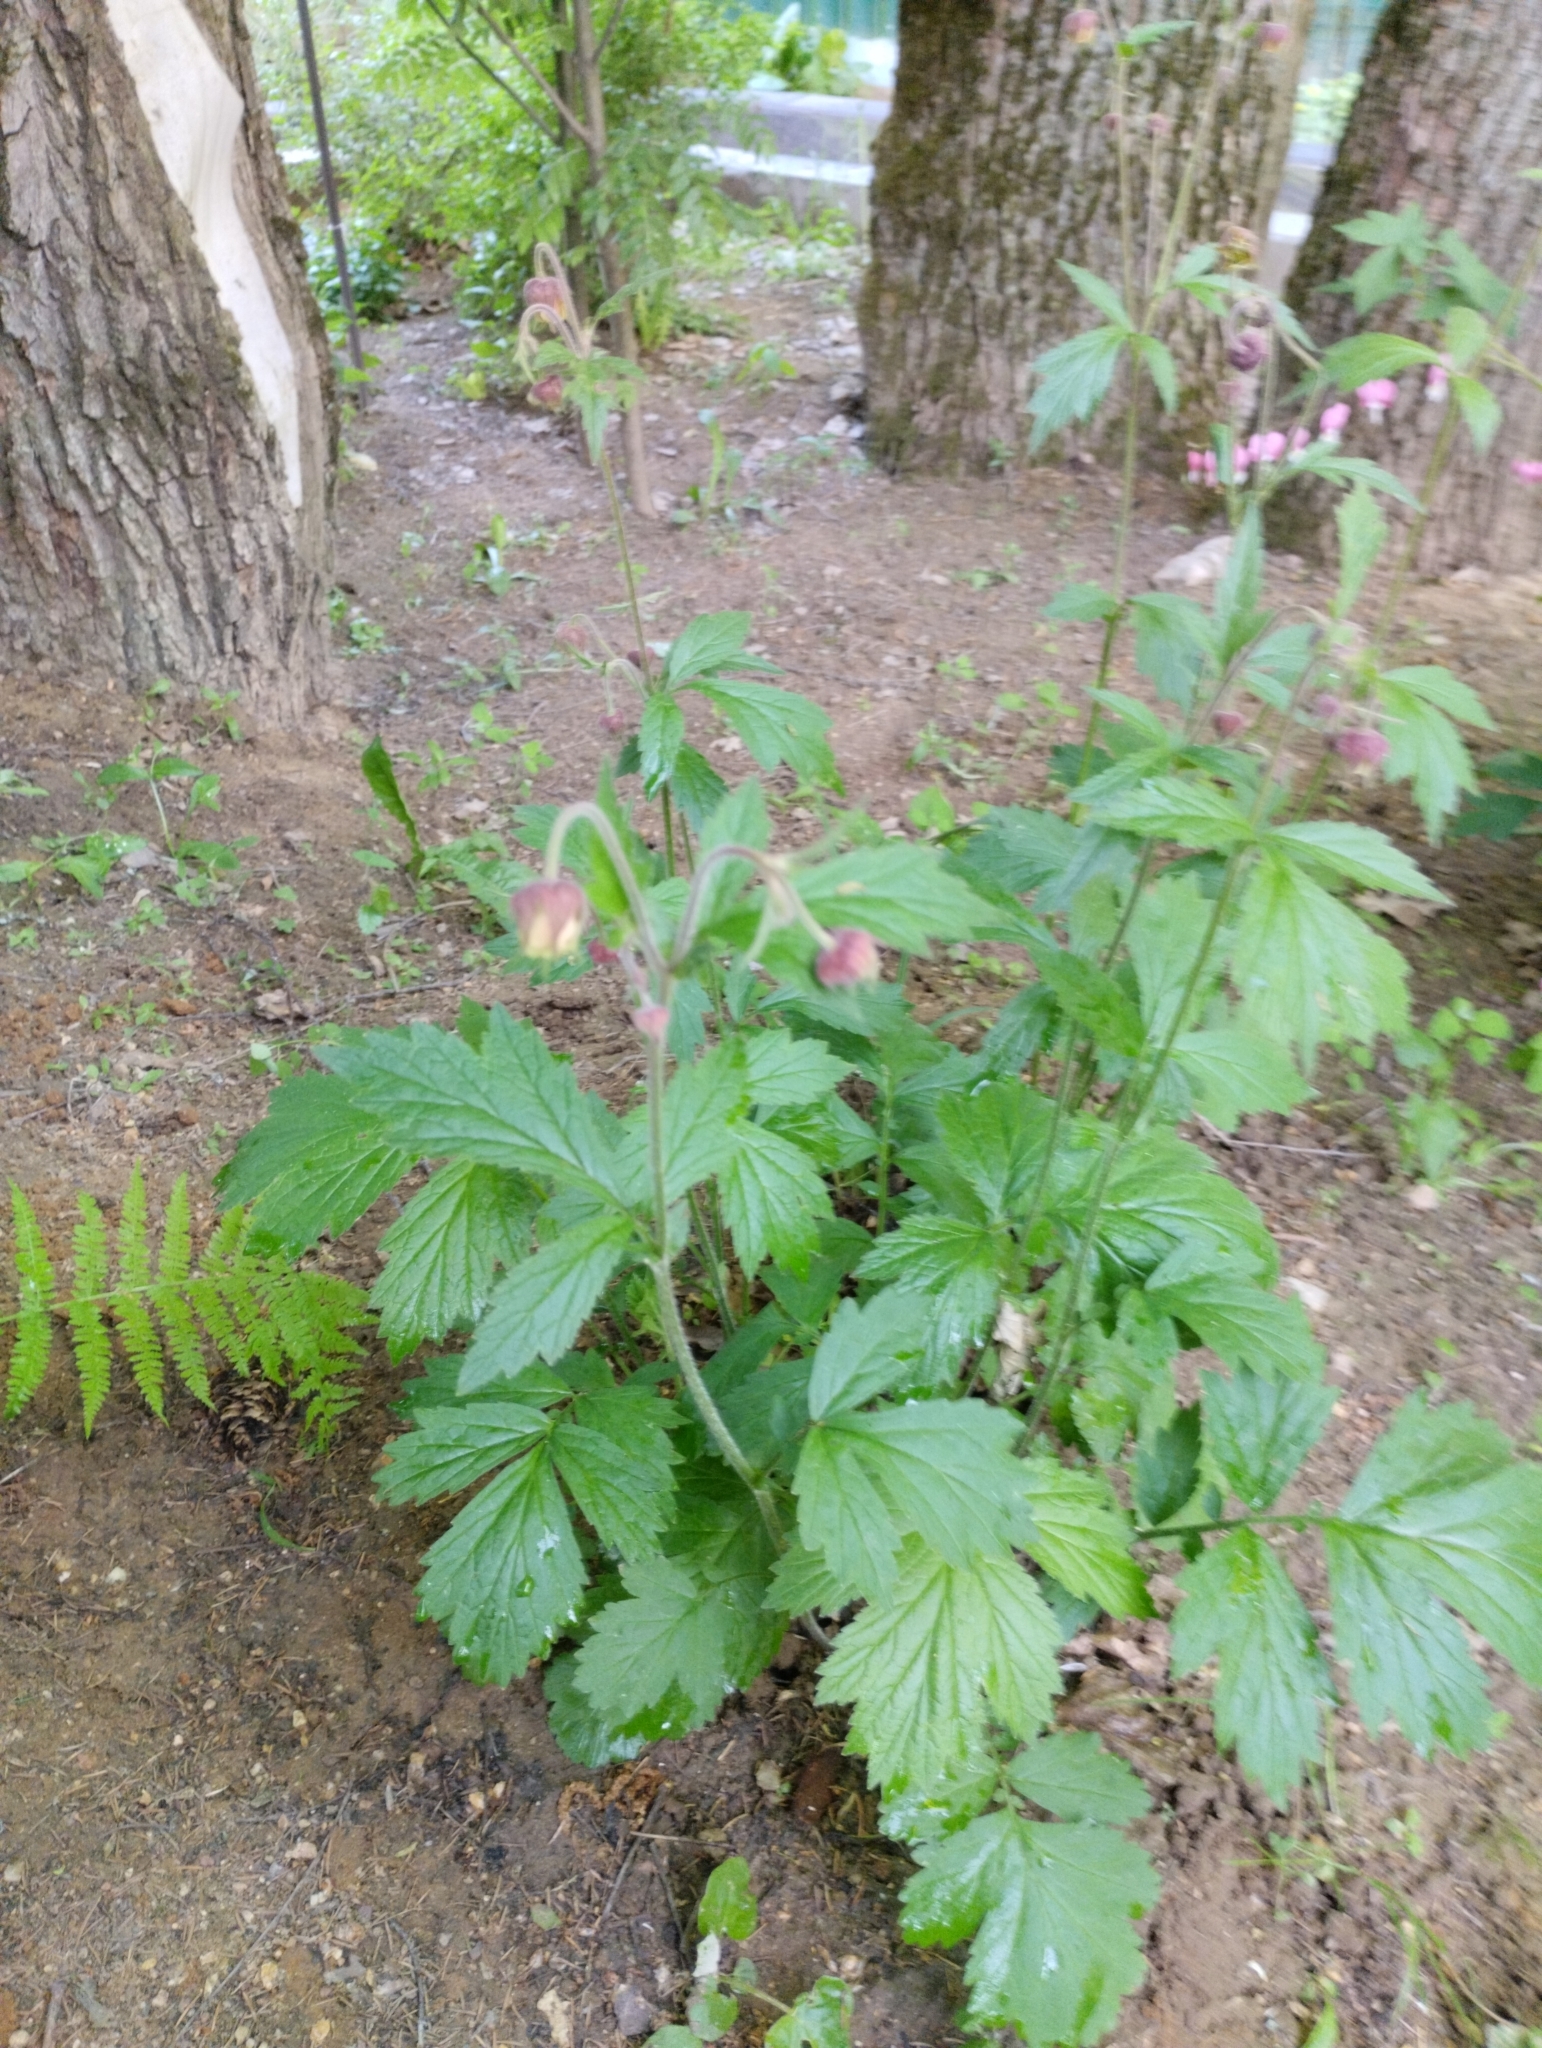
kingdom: Plantae
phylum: Tracheophyta
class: Magnoliopsida
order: Rosales
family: Rosaceae
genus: Geum
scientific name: Geum rivale
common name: Water avens
